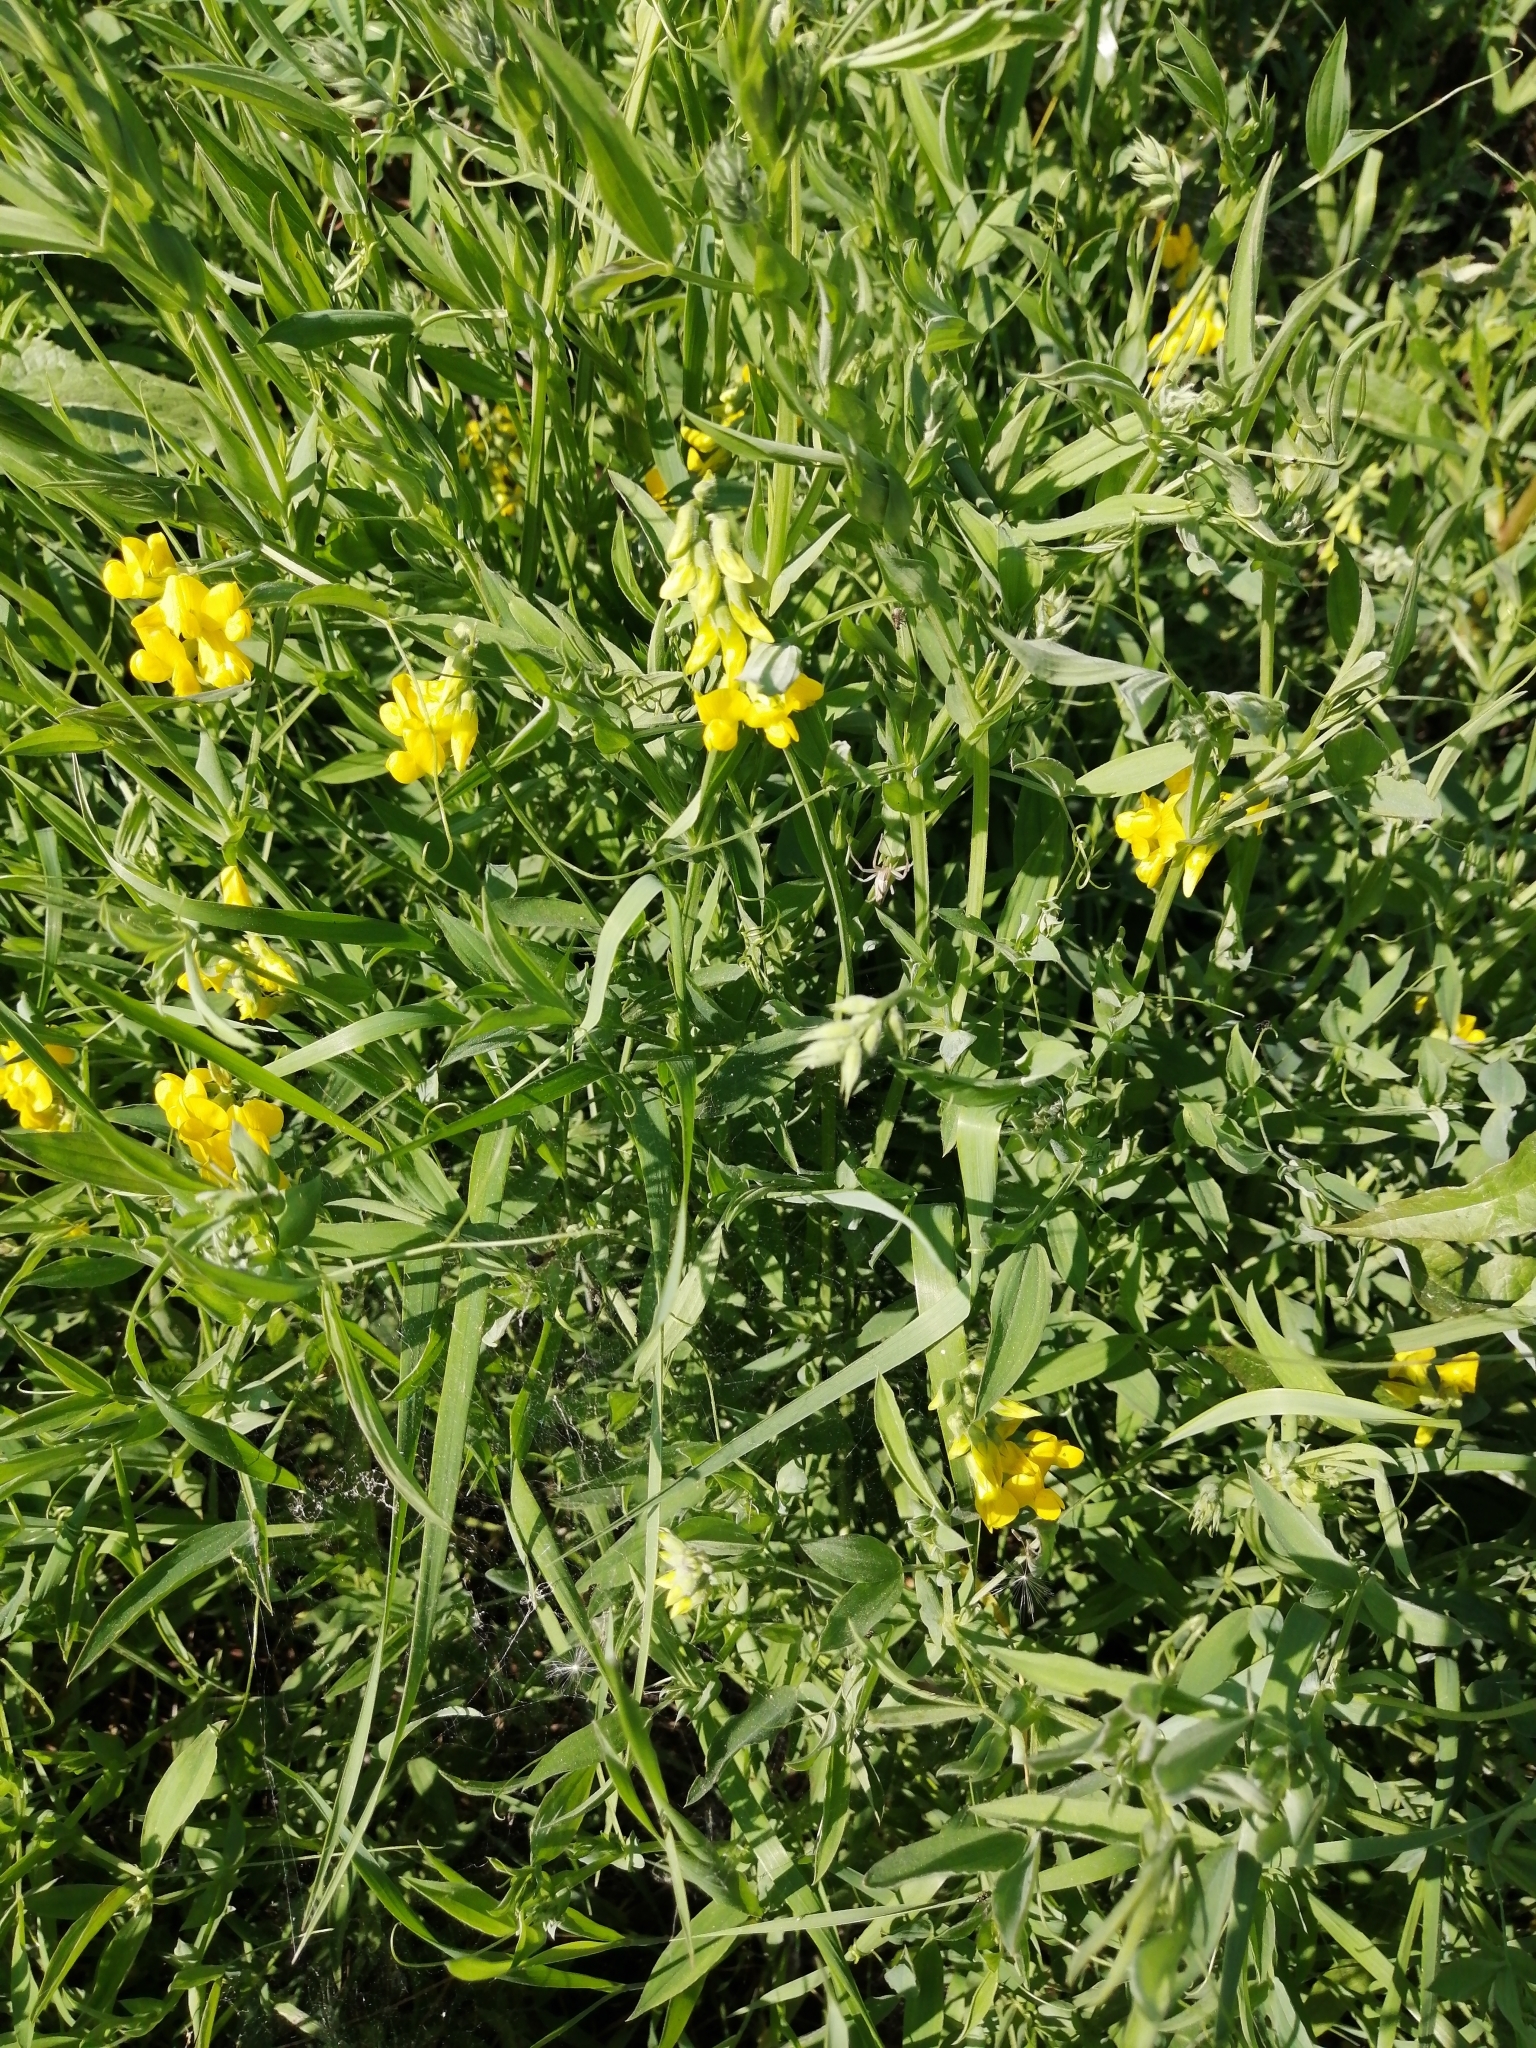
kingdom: Plantae
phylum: Tracheophyta
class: Magnoliopsida
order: Fabales
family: Fabaceae
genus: Lathyrus
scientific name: Lathyrus pratensis
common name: Meadow vetchling
